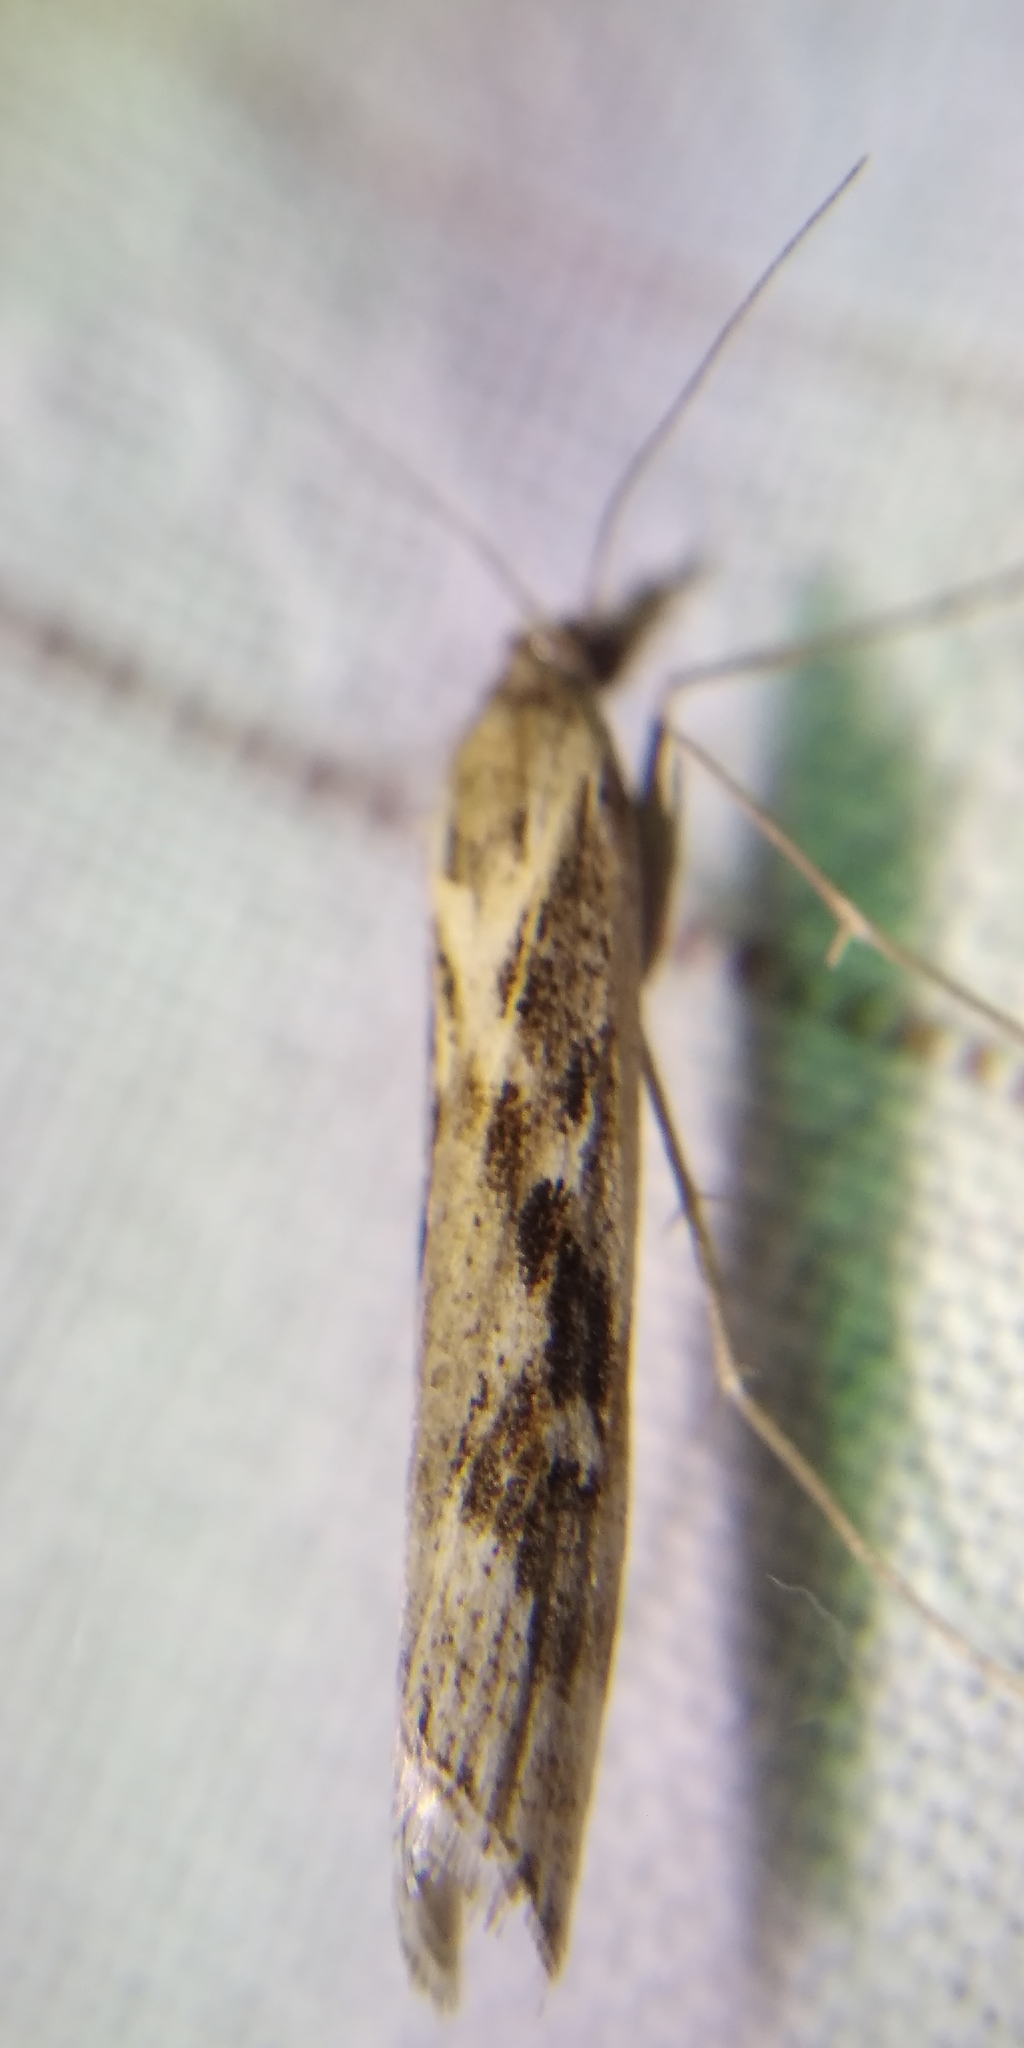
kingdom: Animalia
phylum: Arthropoda
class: Insecta
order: Lepidoptera
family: Crambidae
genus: Pediasia
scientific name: Pediasia matricella
